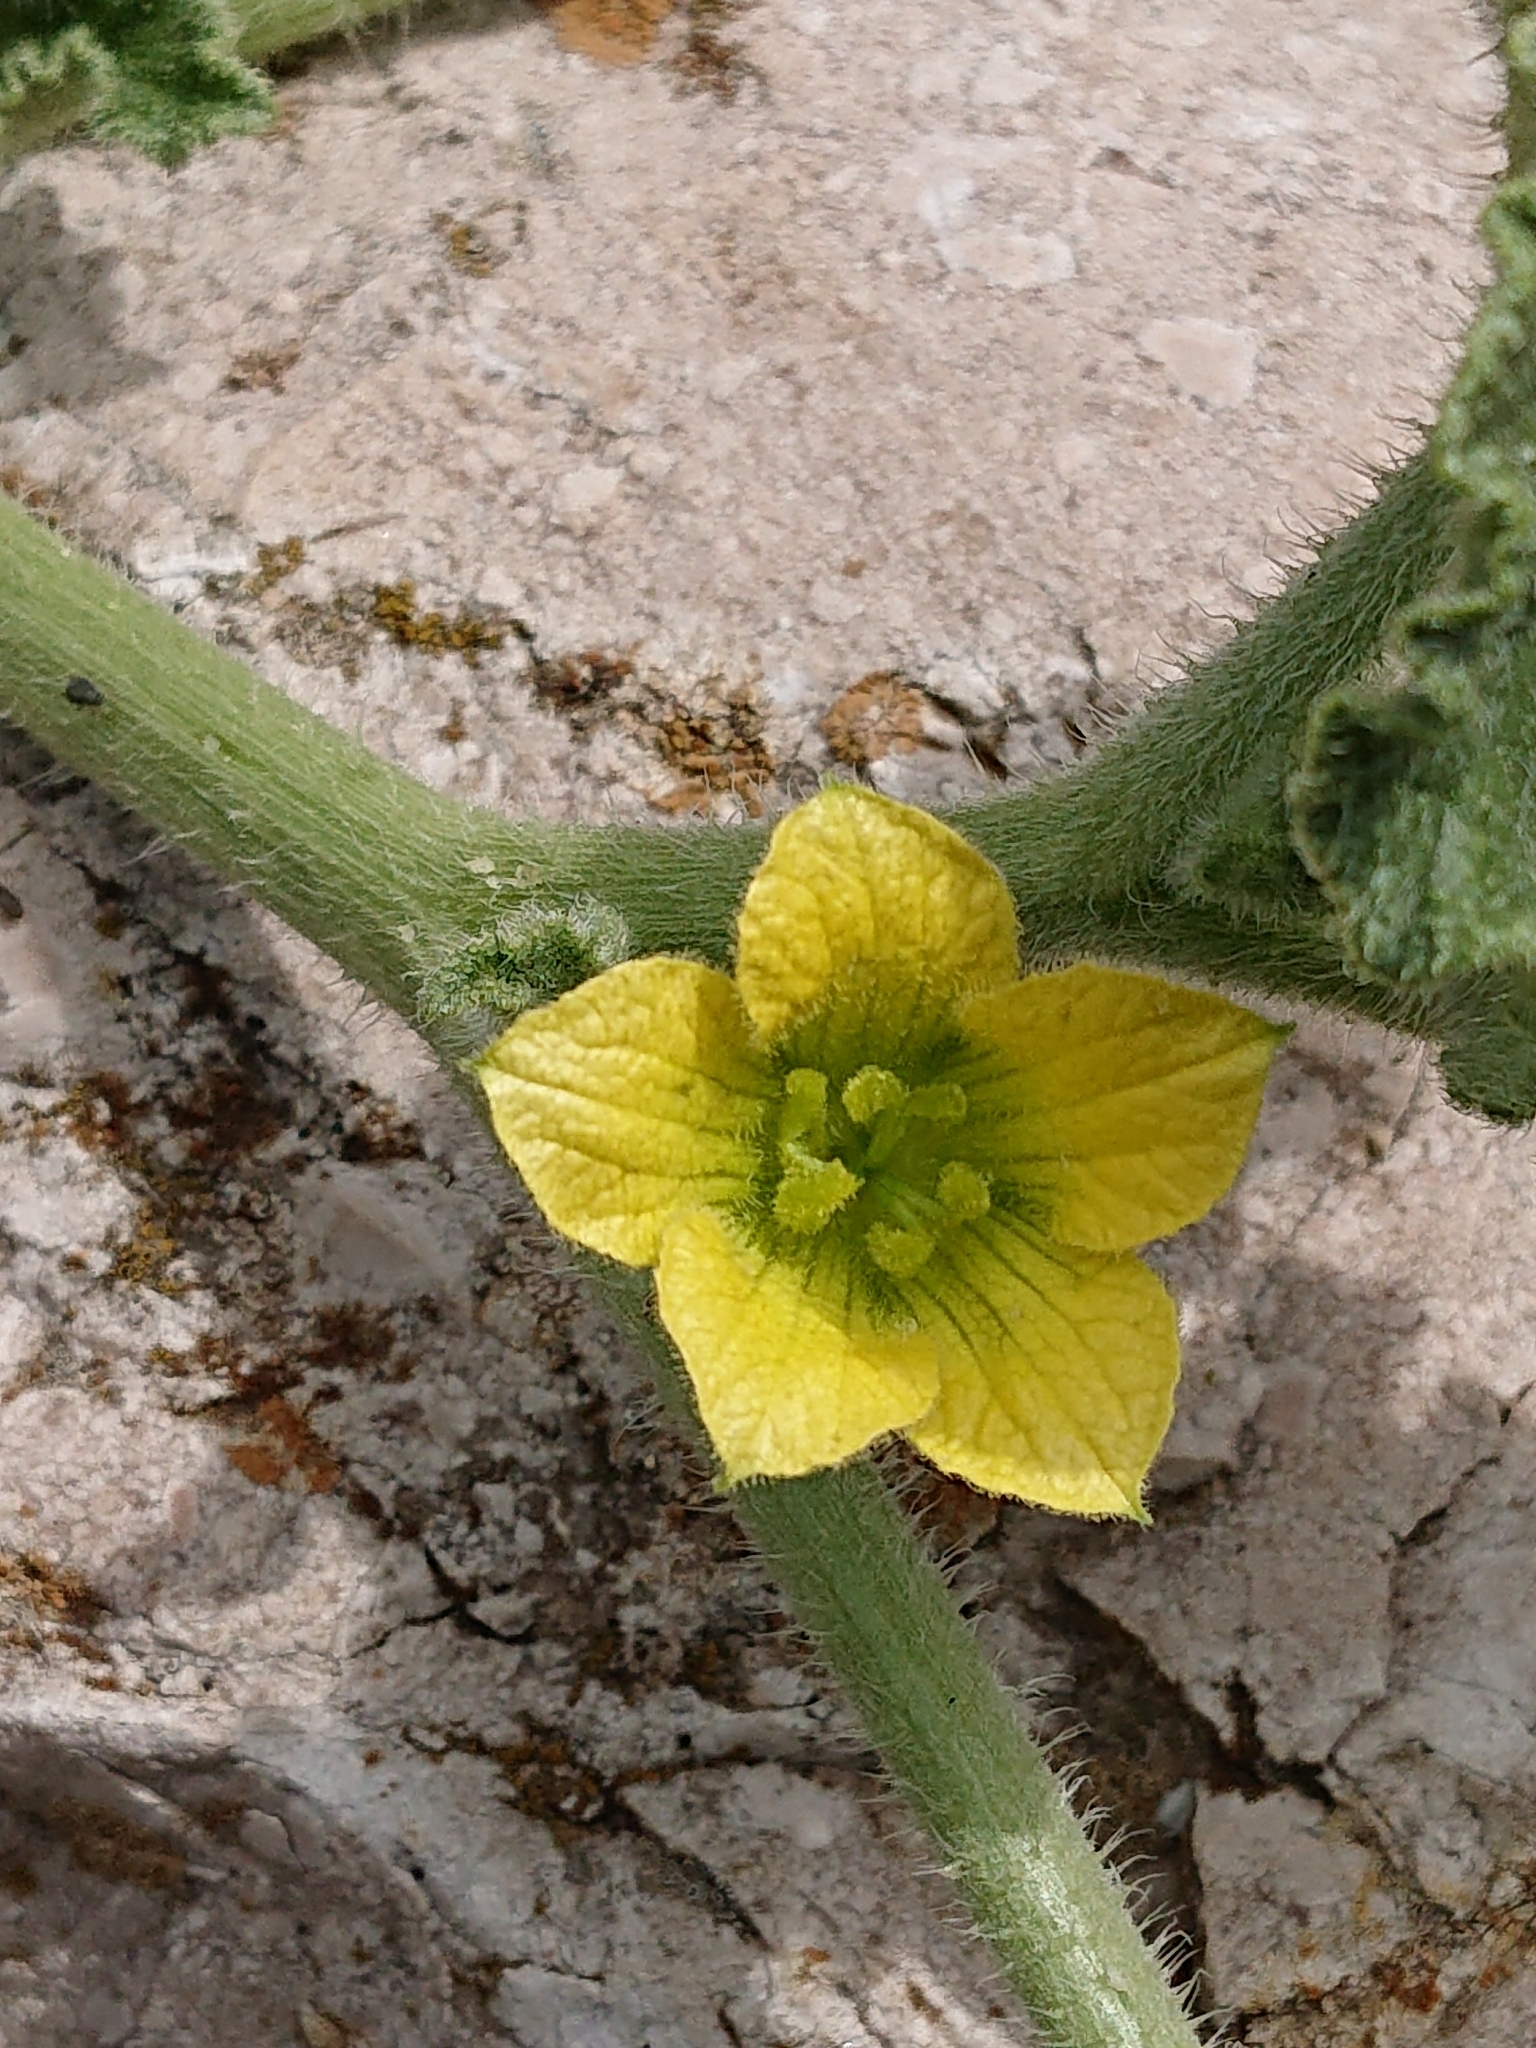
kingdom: Plantae
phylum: Tracheophyta
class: Magnoliopsida
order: Cucurbitales
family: Cucurbitaceae
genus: Ecballium
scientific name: Ecballium elaterium
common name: Squirting cucumber
